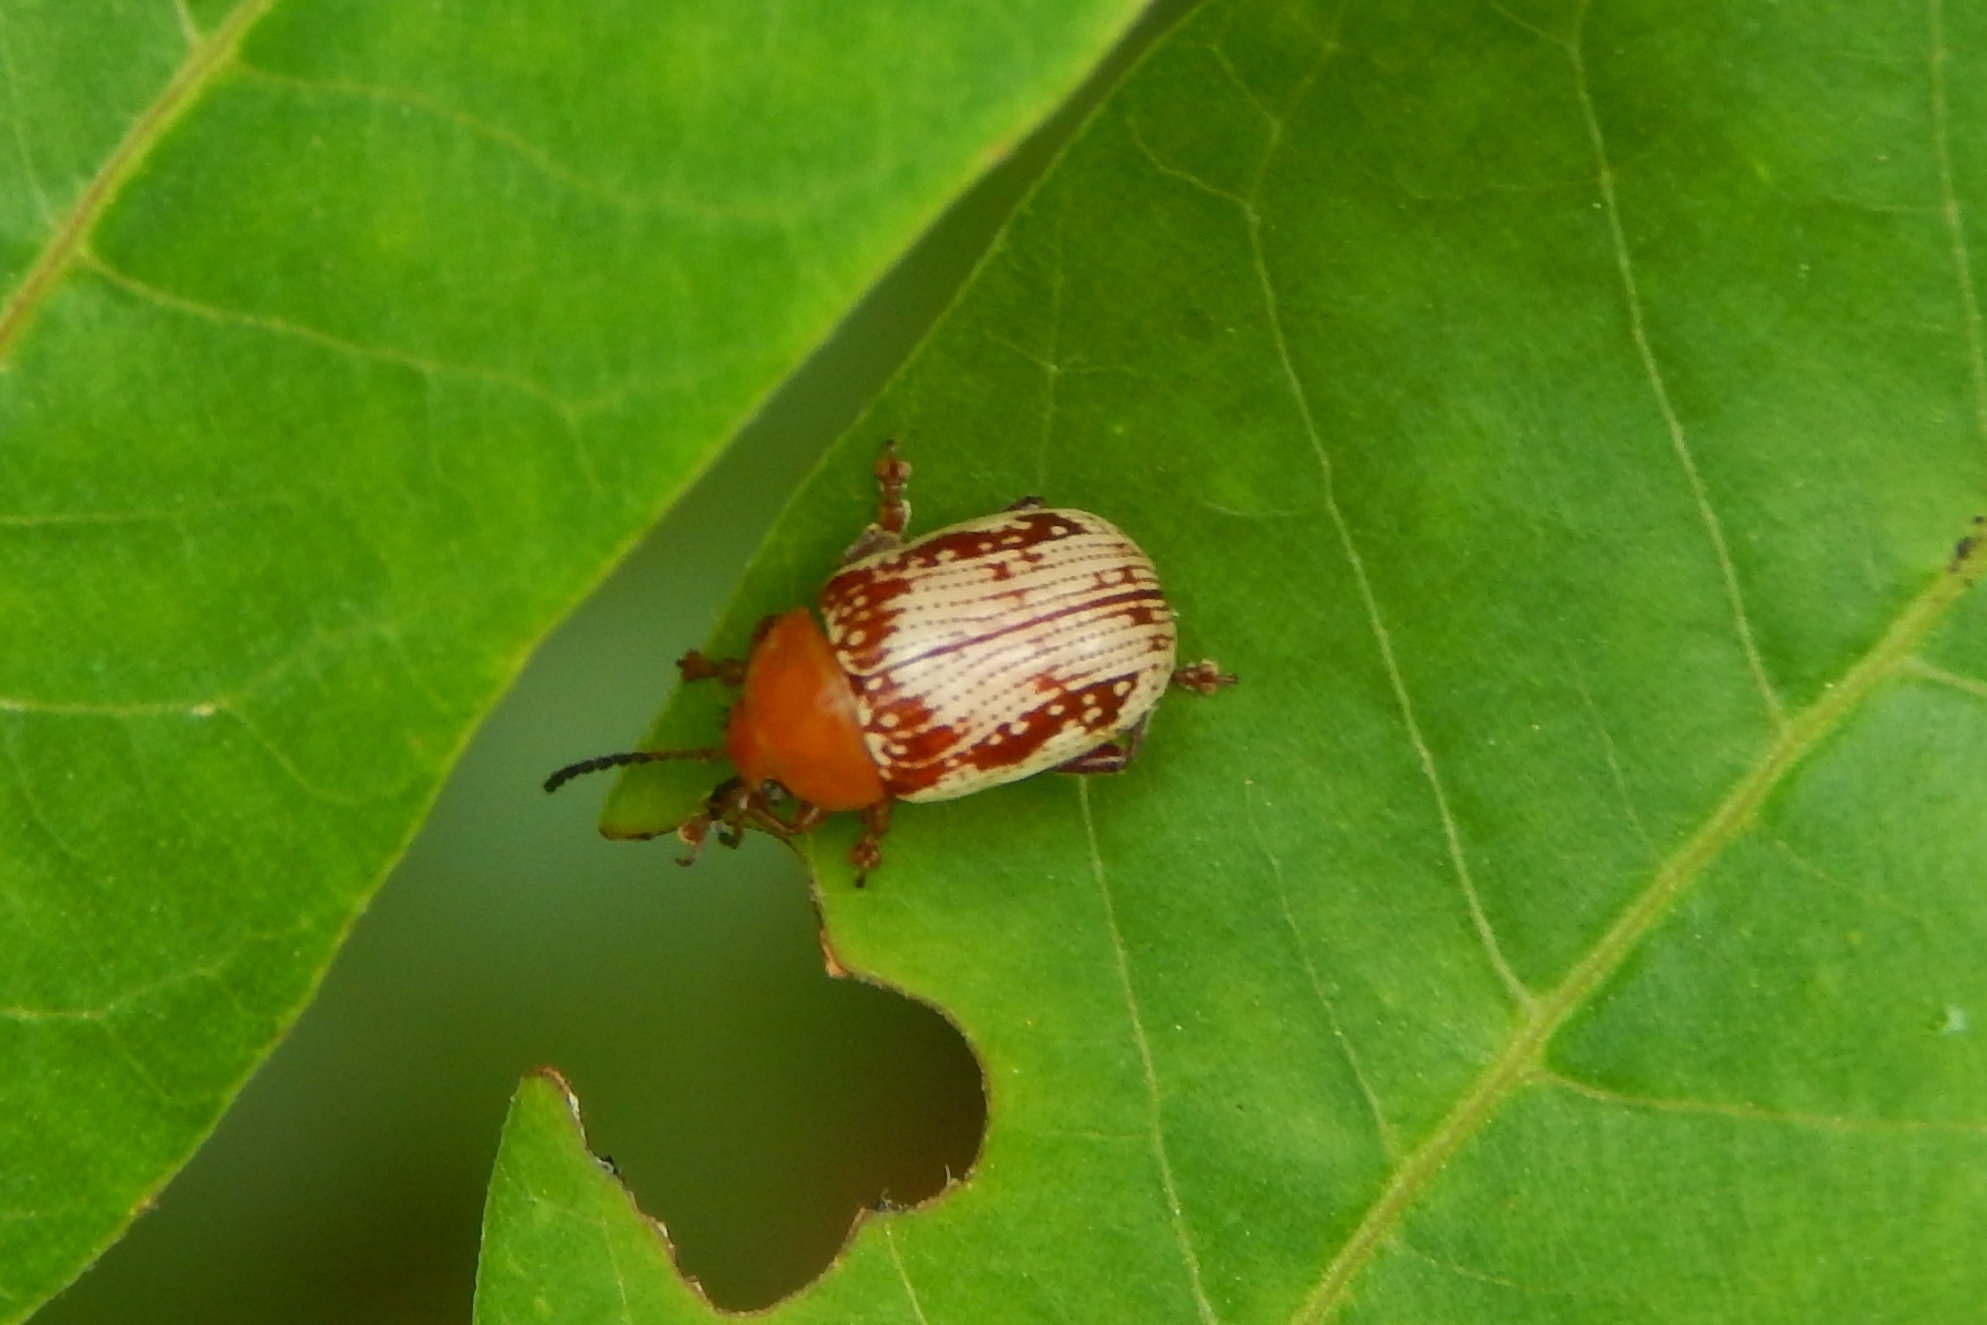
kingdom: Animalia
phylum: Arthropoda
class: Insecta
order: Coleoptera
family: Chrysomelidae
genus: Blepharida
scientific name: Blepharida rhois
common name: Sumac flea beetle
